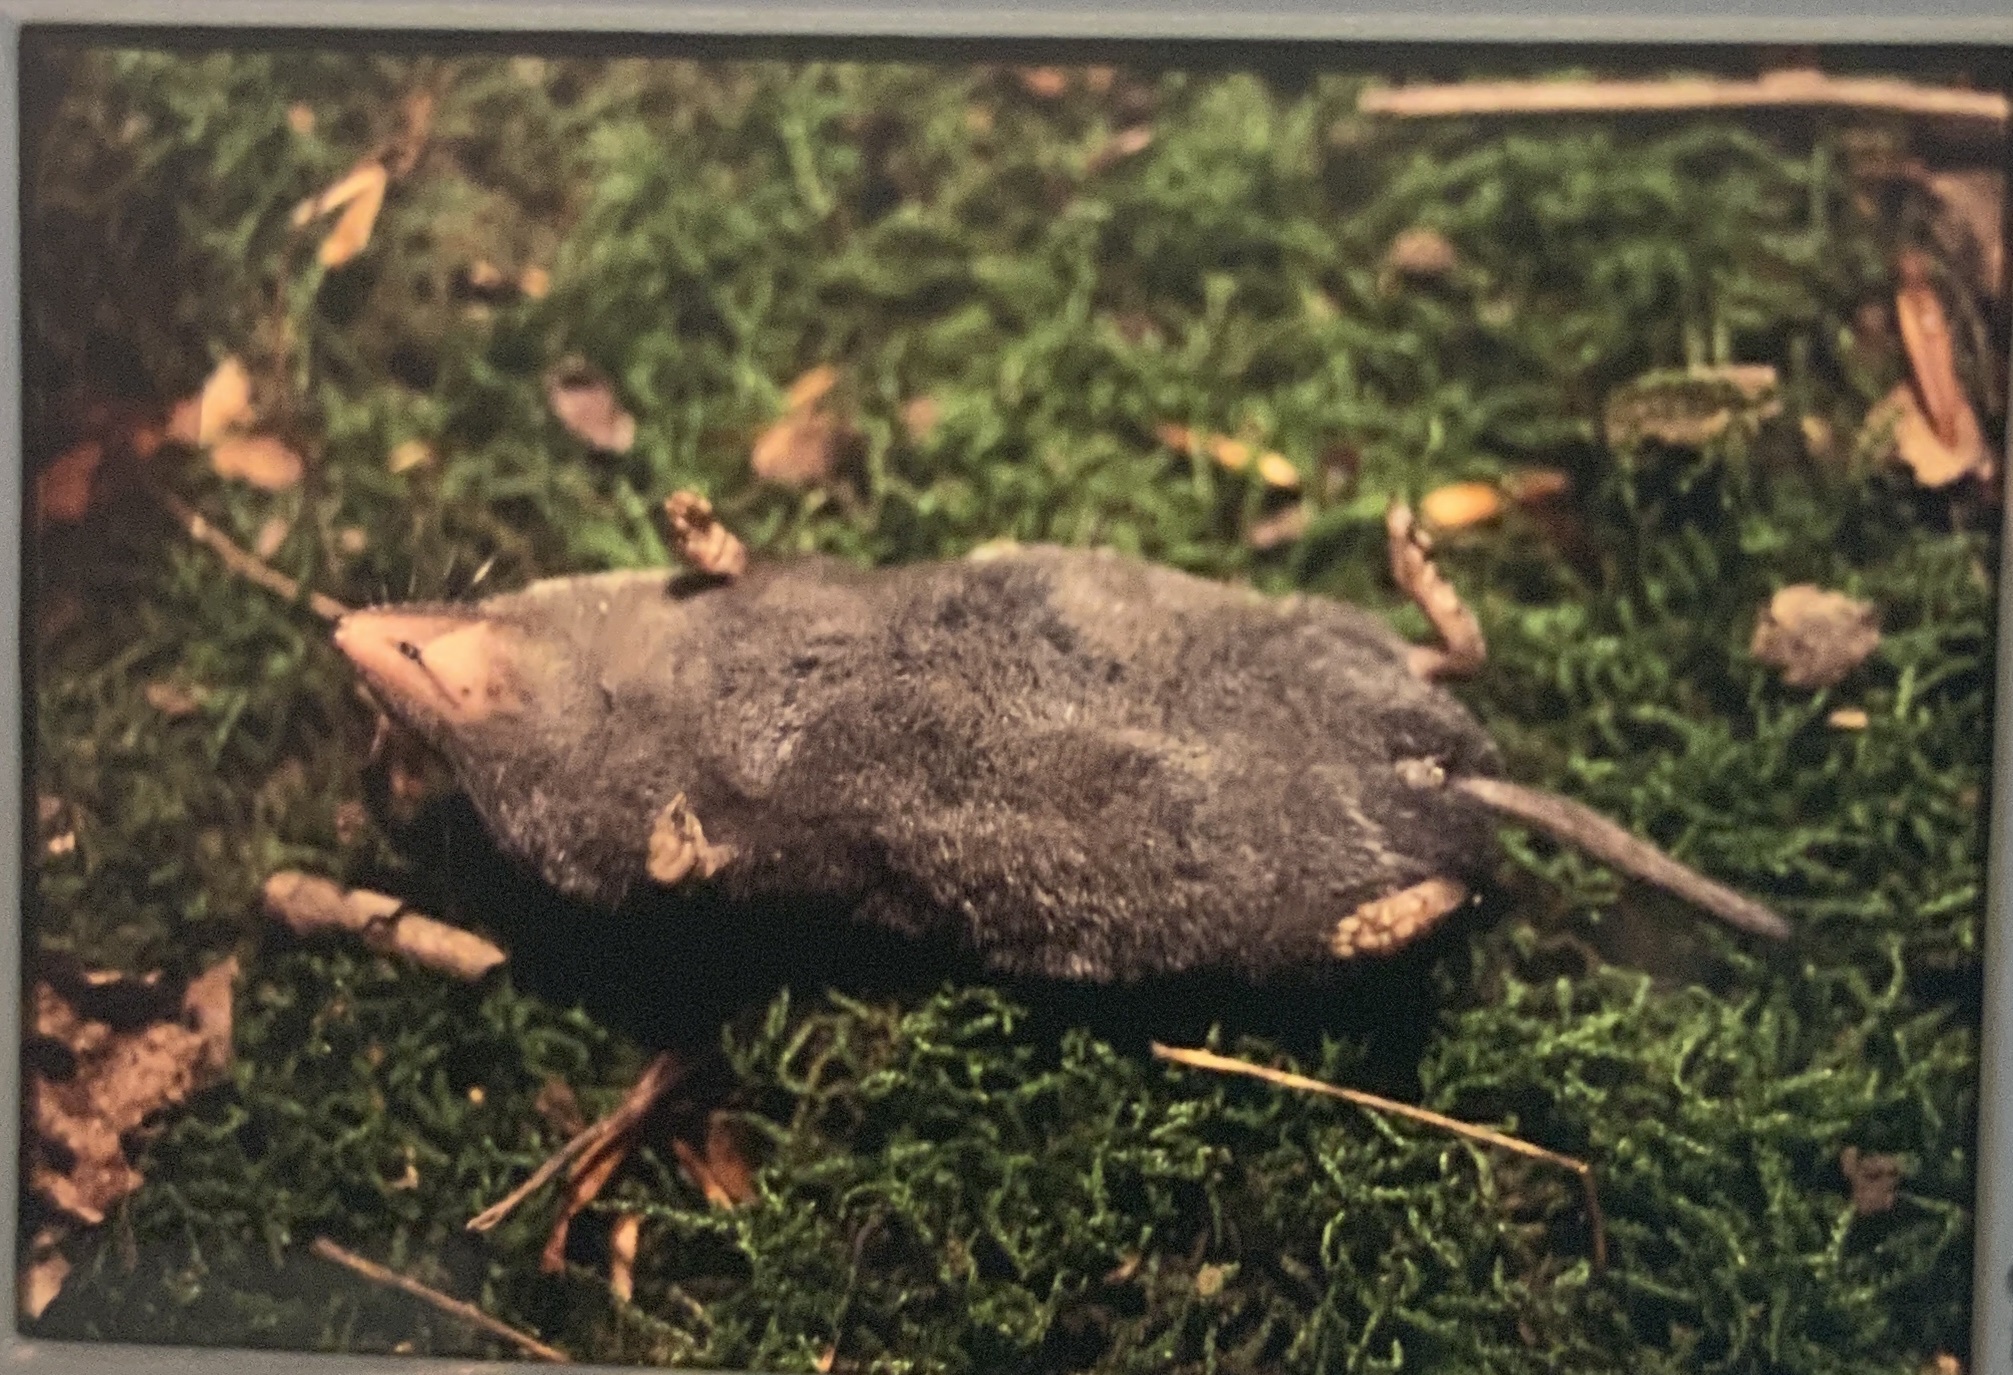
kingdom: Animalia
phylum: Chordata
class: Mammalia
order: Soricomorpha
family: Soricidae
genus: Blarina
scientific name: Blarina brevicauda
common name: Northern short-tailed shrew
